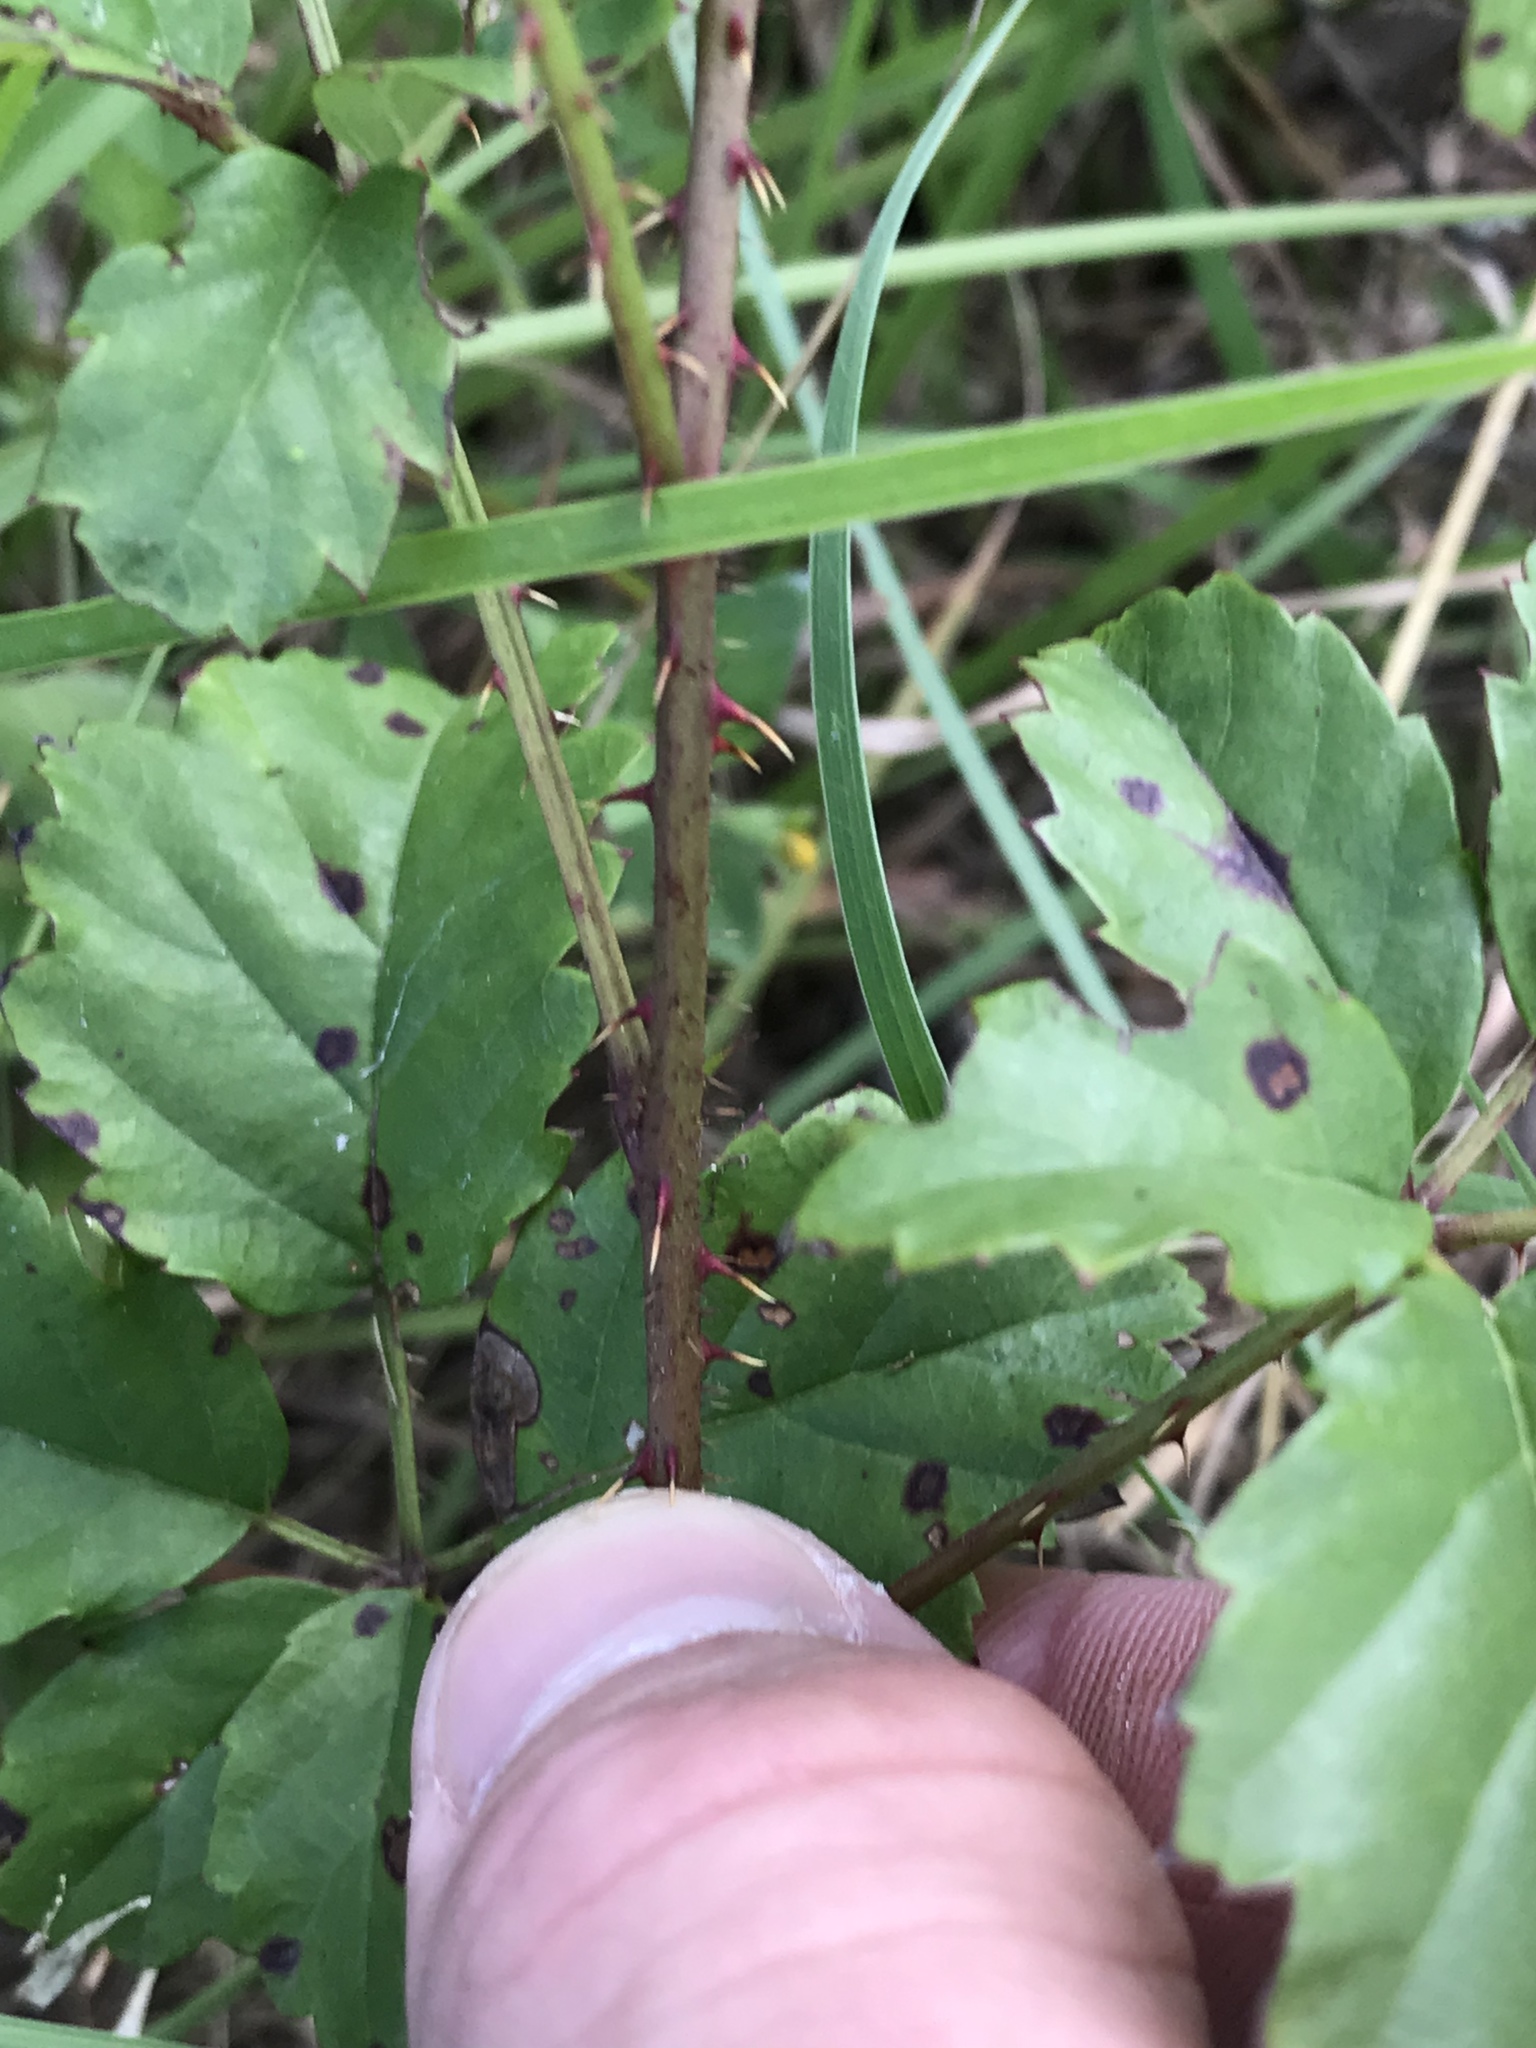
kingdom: Plantae
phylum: Tracheophyta
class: Magnoliopsida
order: Rosales
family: Rosaceae
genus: Rubus
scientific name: Rubus trivialis
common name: Southern dewberry
